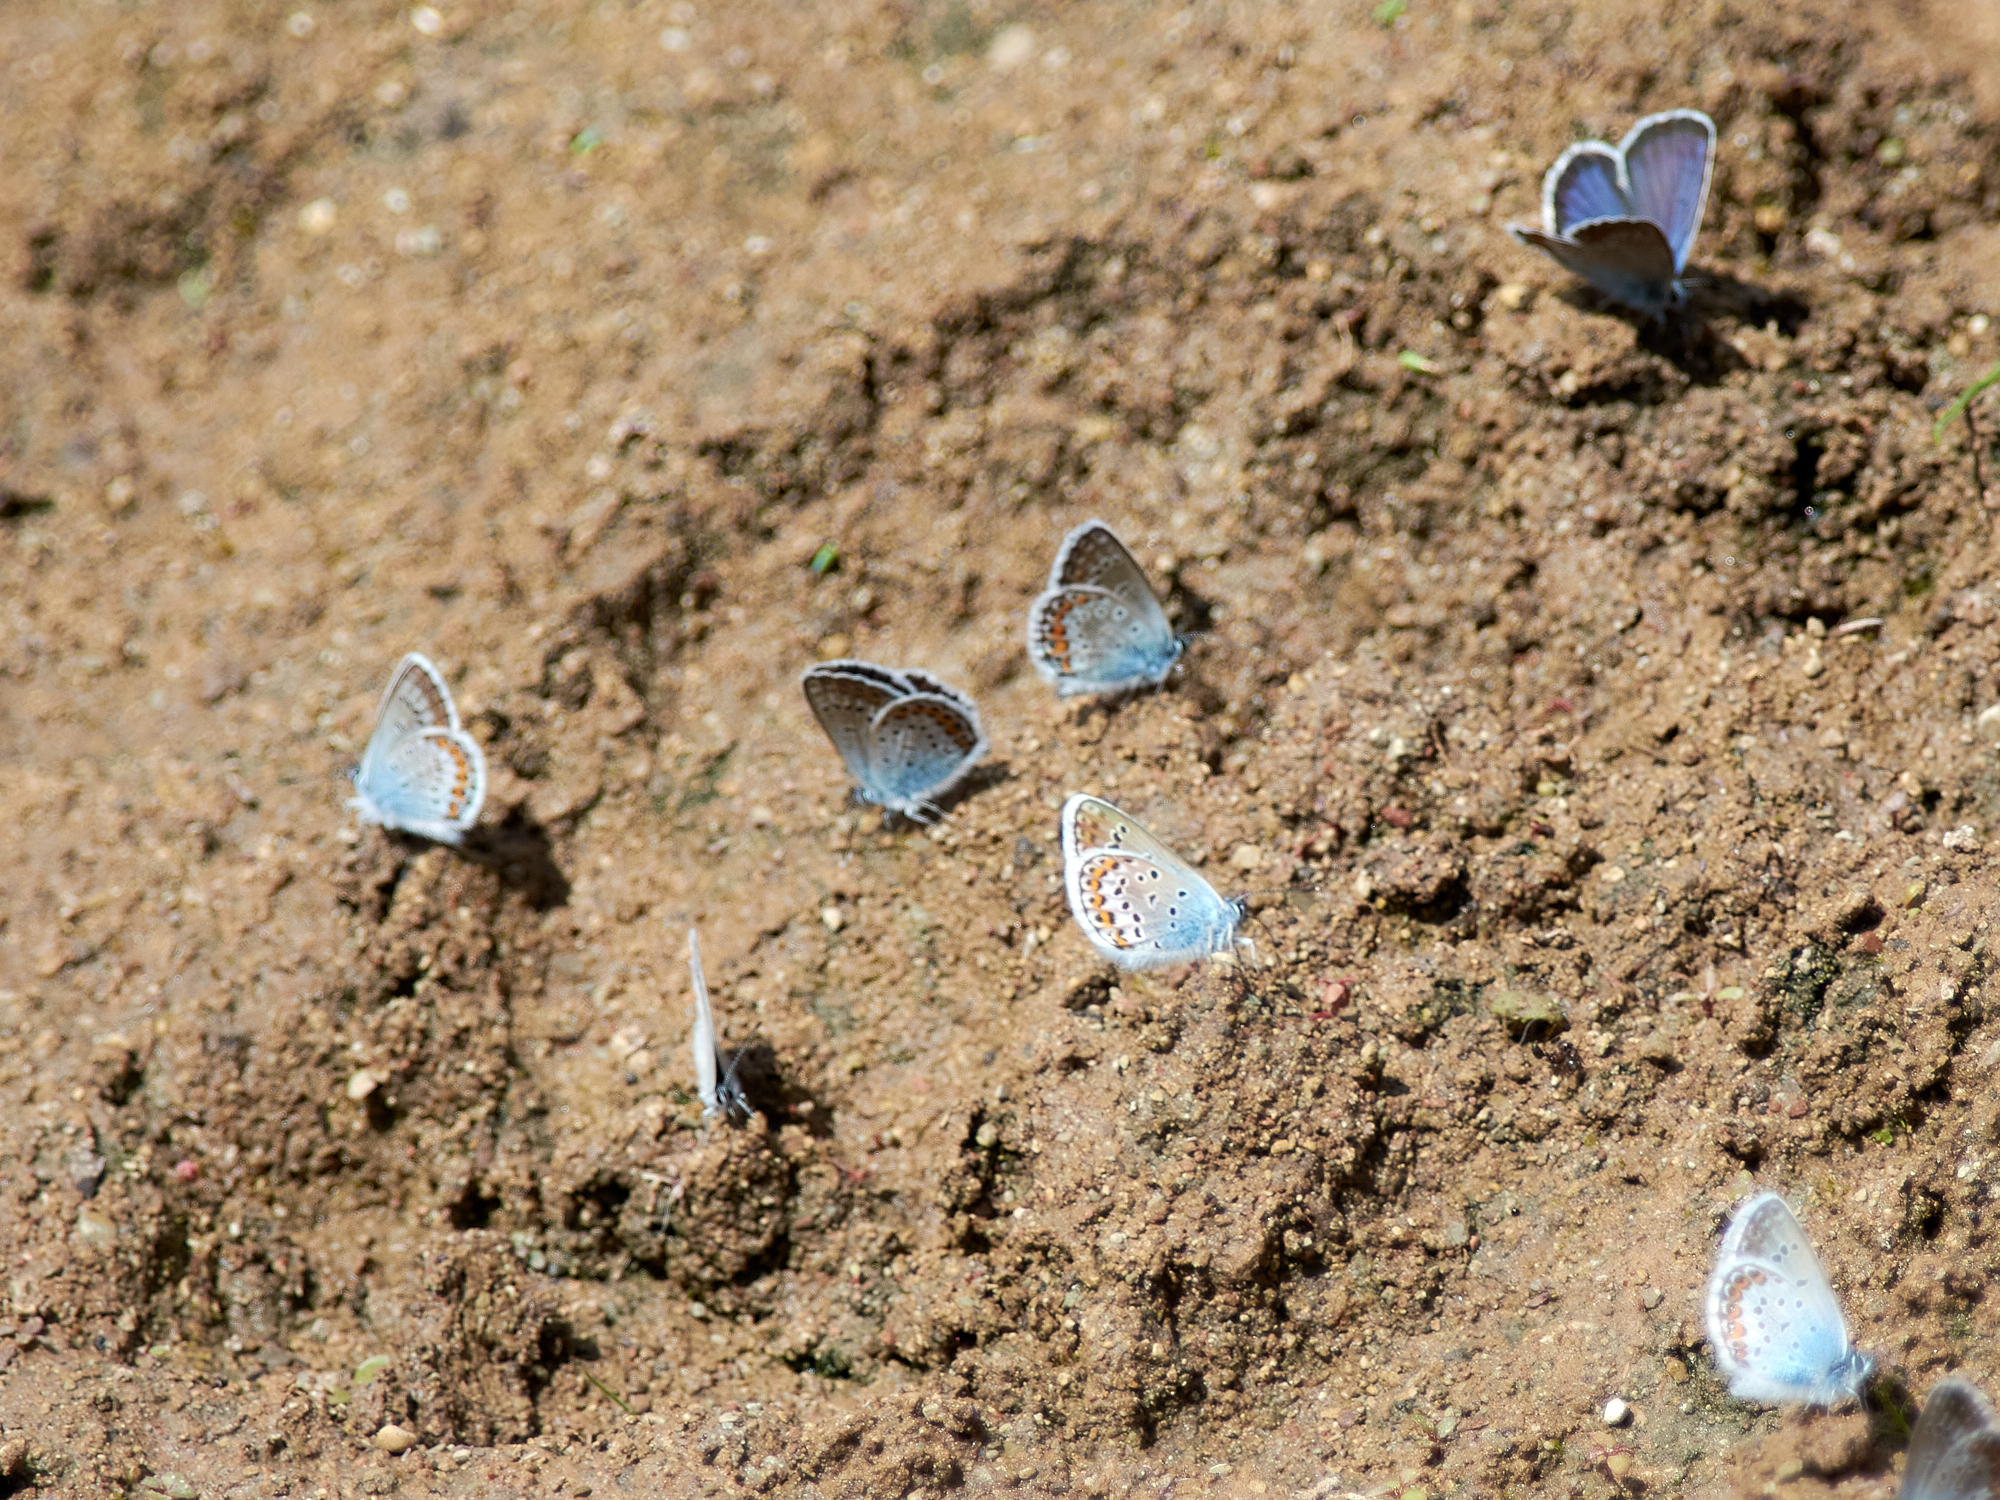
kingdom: Animalia
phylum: Arthropoda
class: Insecta
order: Lepidoptera
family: Lycaenidae
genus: Plebejus
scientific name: Plebejus argus
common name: Silver-studded blue
